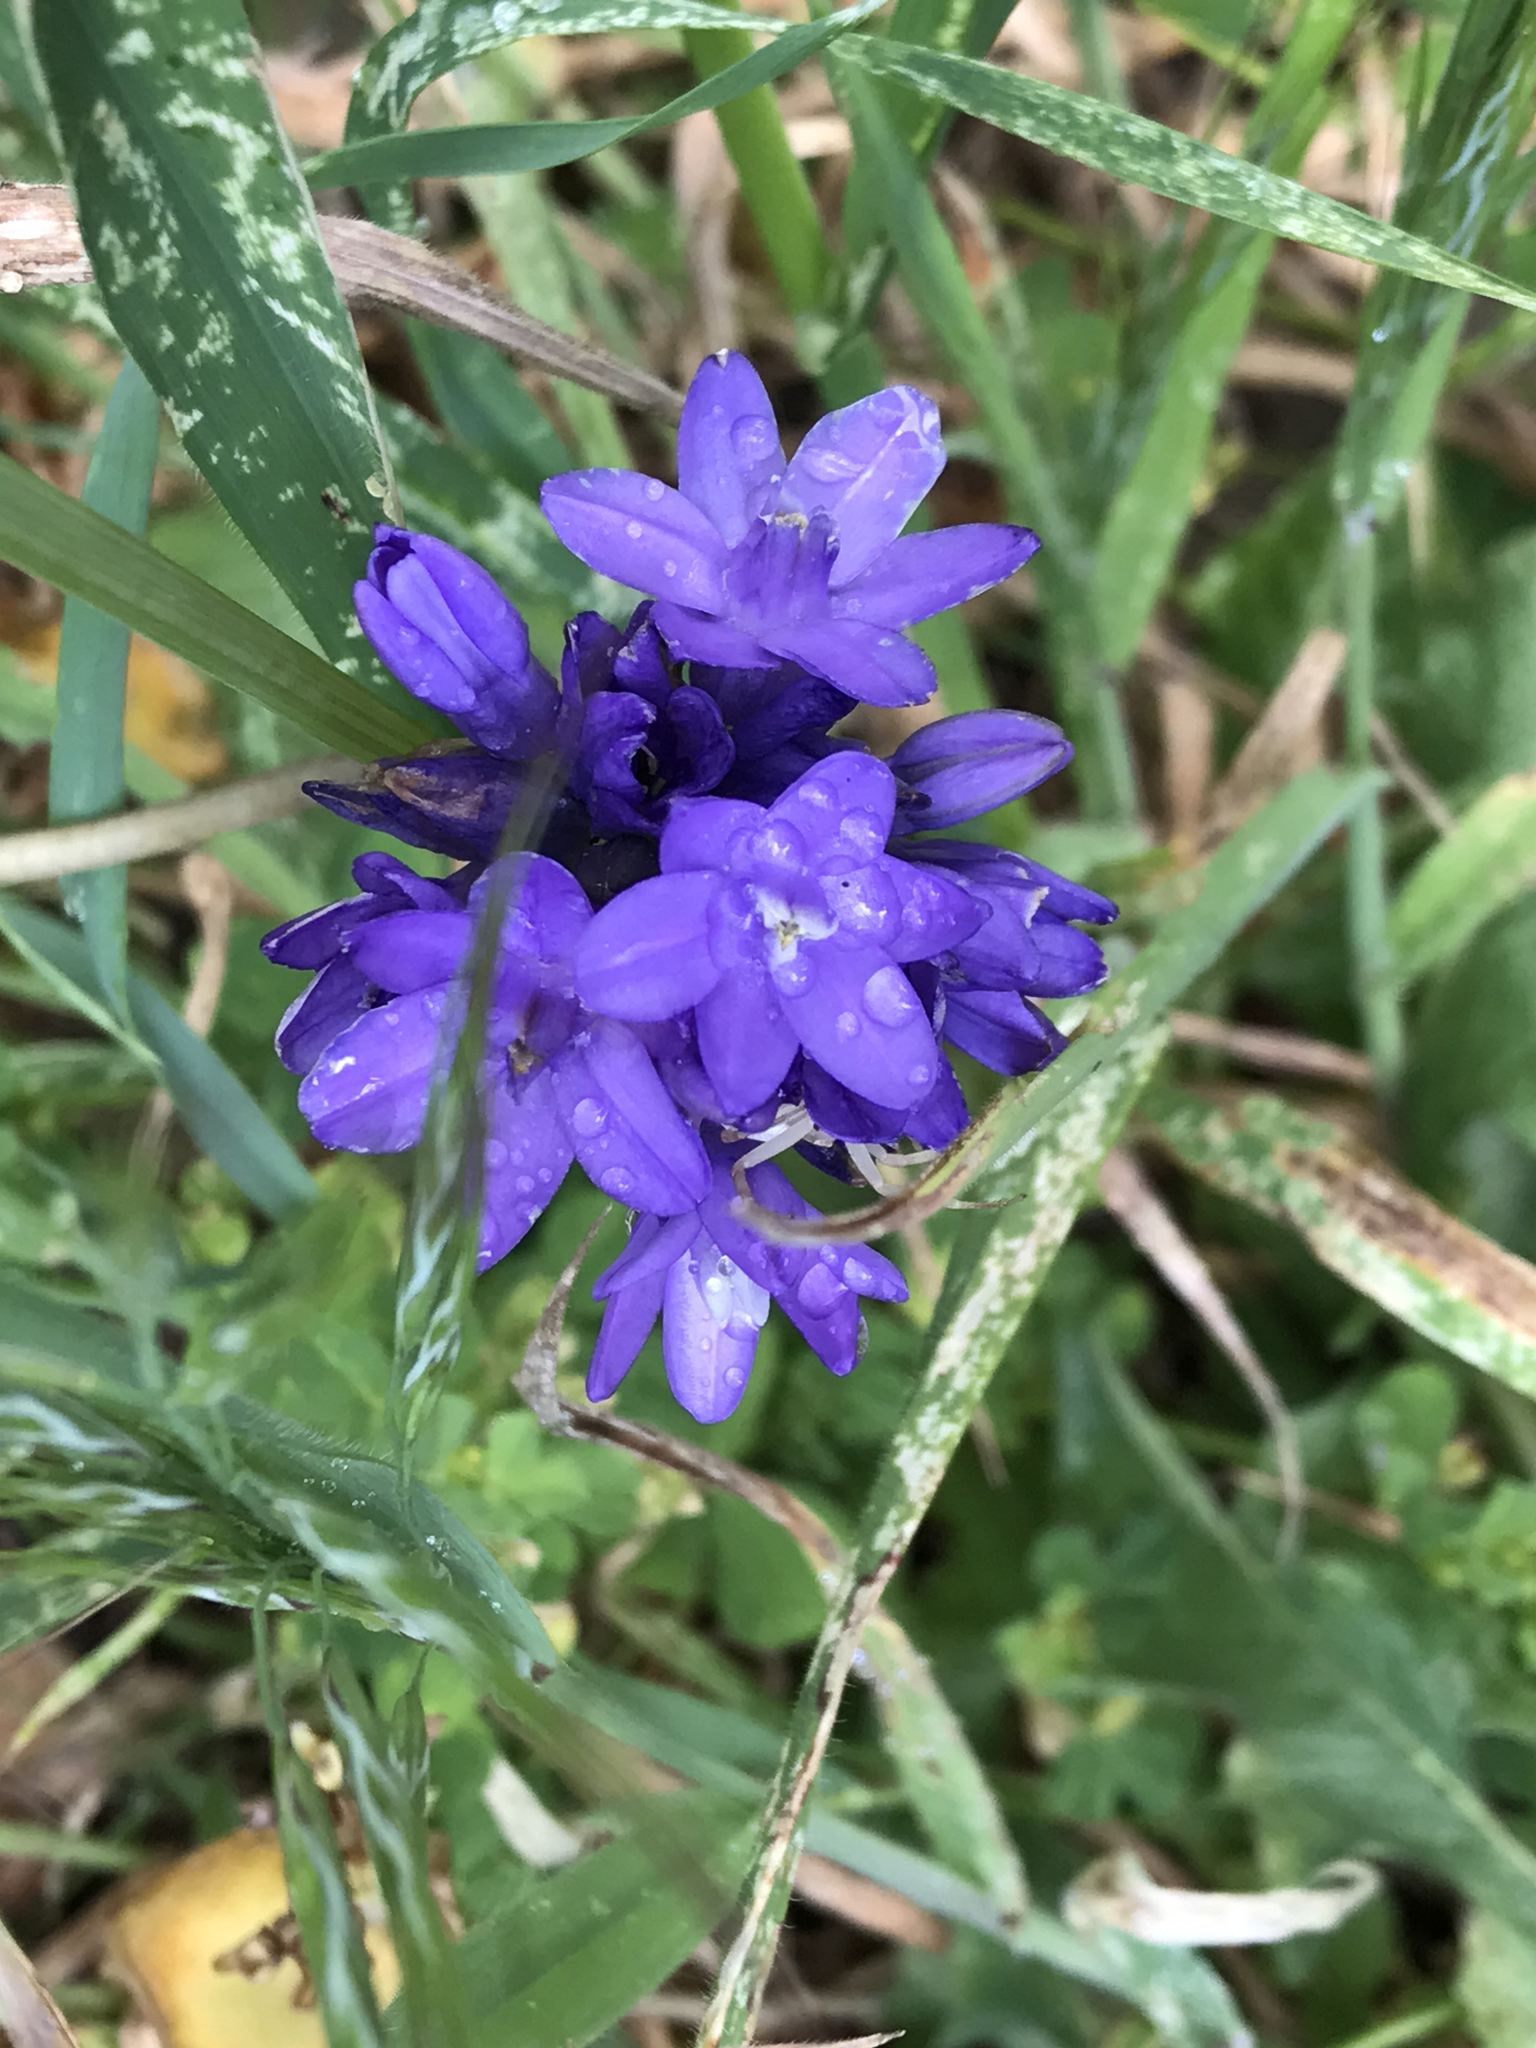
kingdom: Plantae
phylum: Tracheophyta
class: Liliopsida
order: Asparagales
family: Asparagaceae
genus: Dipterostemon
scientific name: Dipterostemon capitatus
